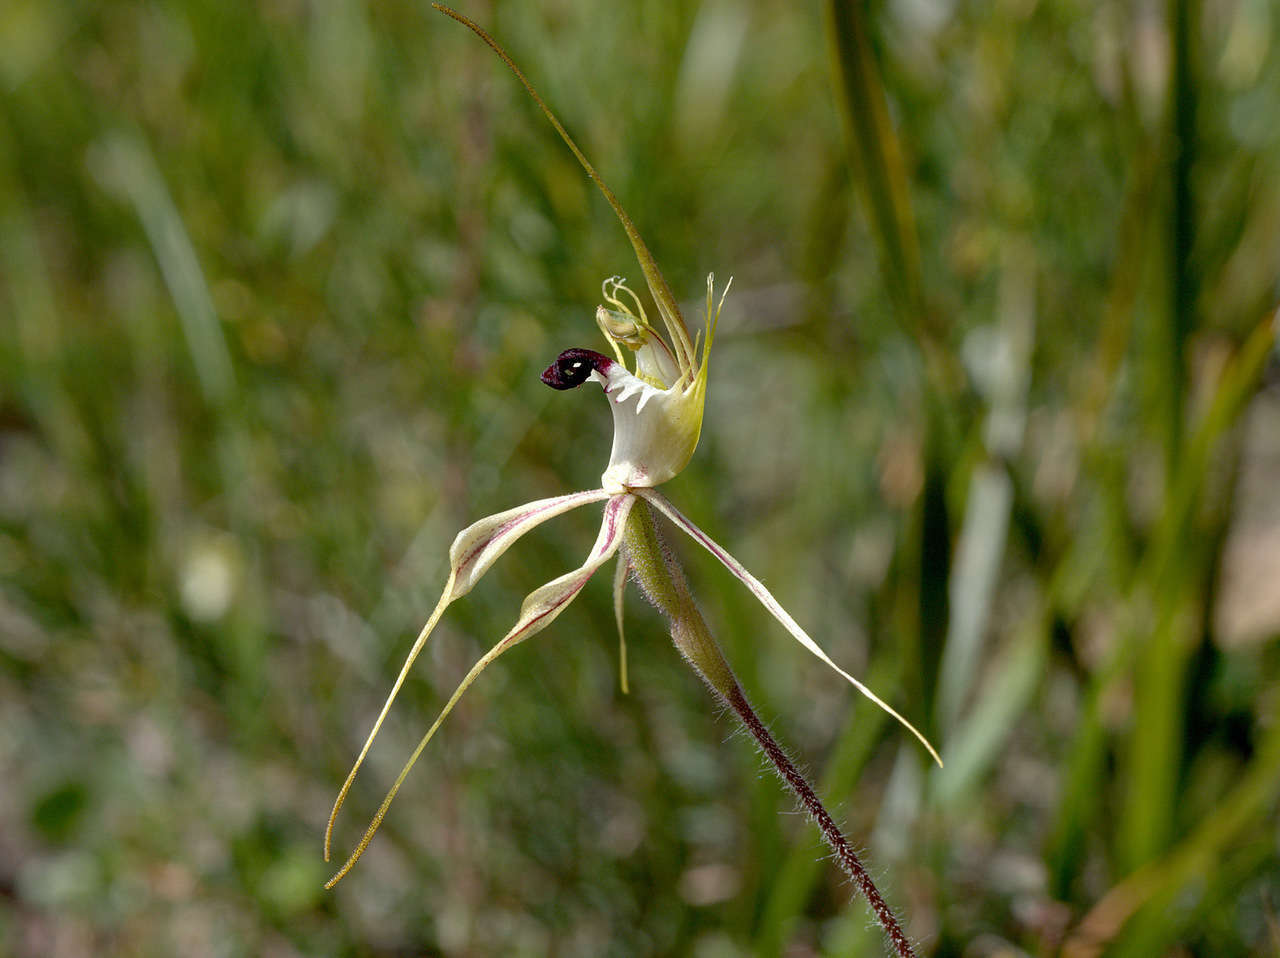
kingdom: Plantae
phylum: Tracheophyta
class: Liliopsida
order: Asparagales
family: Orchidaceae
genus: Caladenia
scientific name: Caladenia tentaculata
